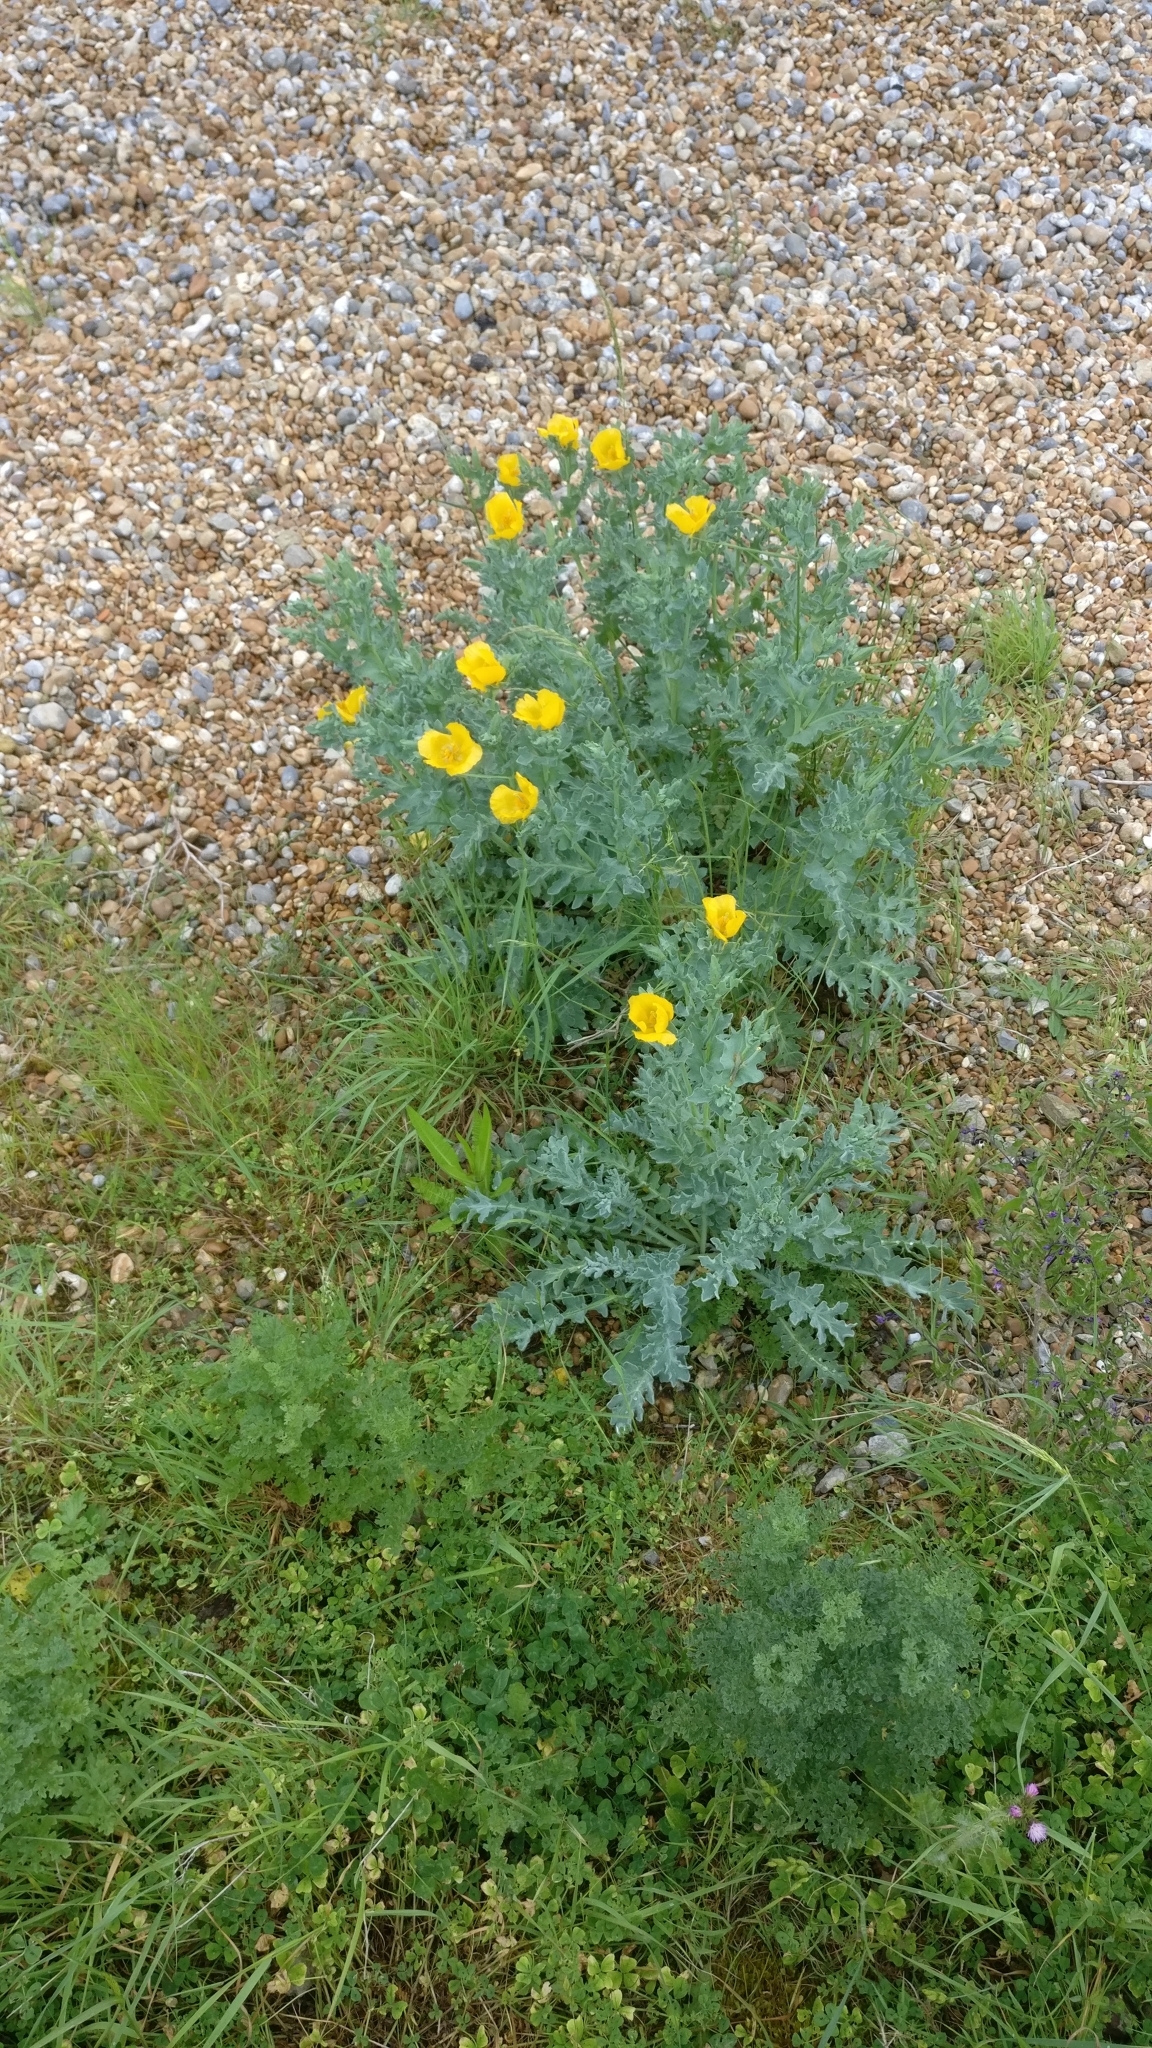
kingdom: Plantae
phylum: Tracheophyta
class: Magnoliopsida
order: Ranunculales
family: Papaveraceae
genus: Glaucium
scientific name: Glaucium flavum
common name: Yellow horned-poppy
